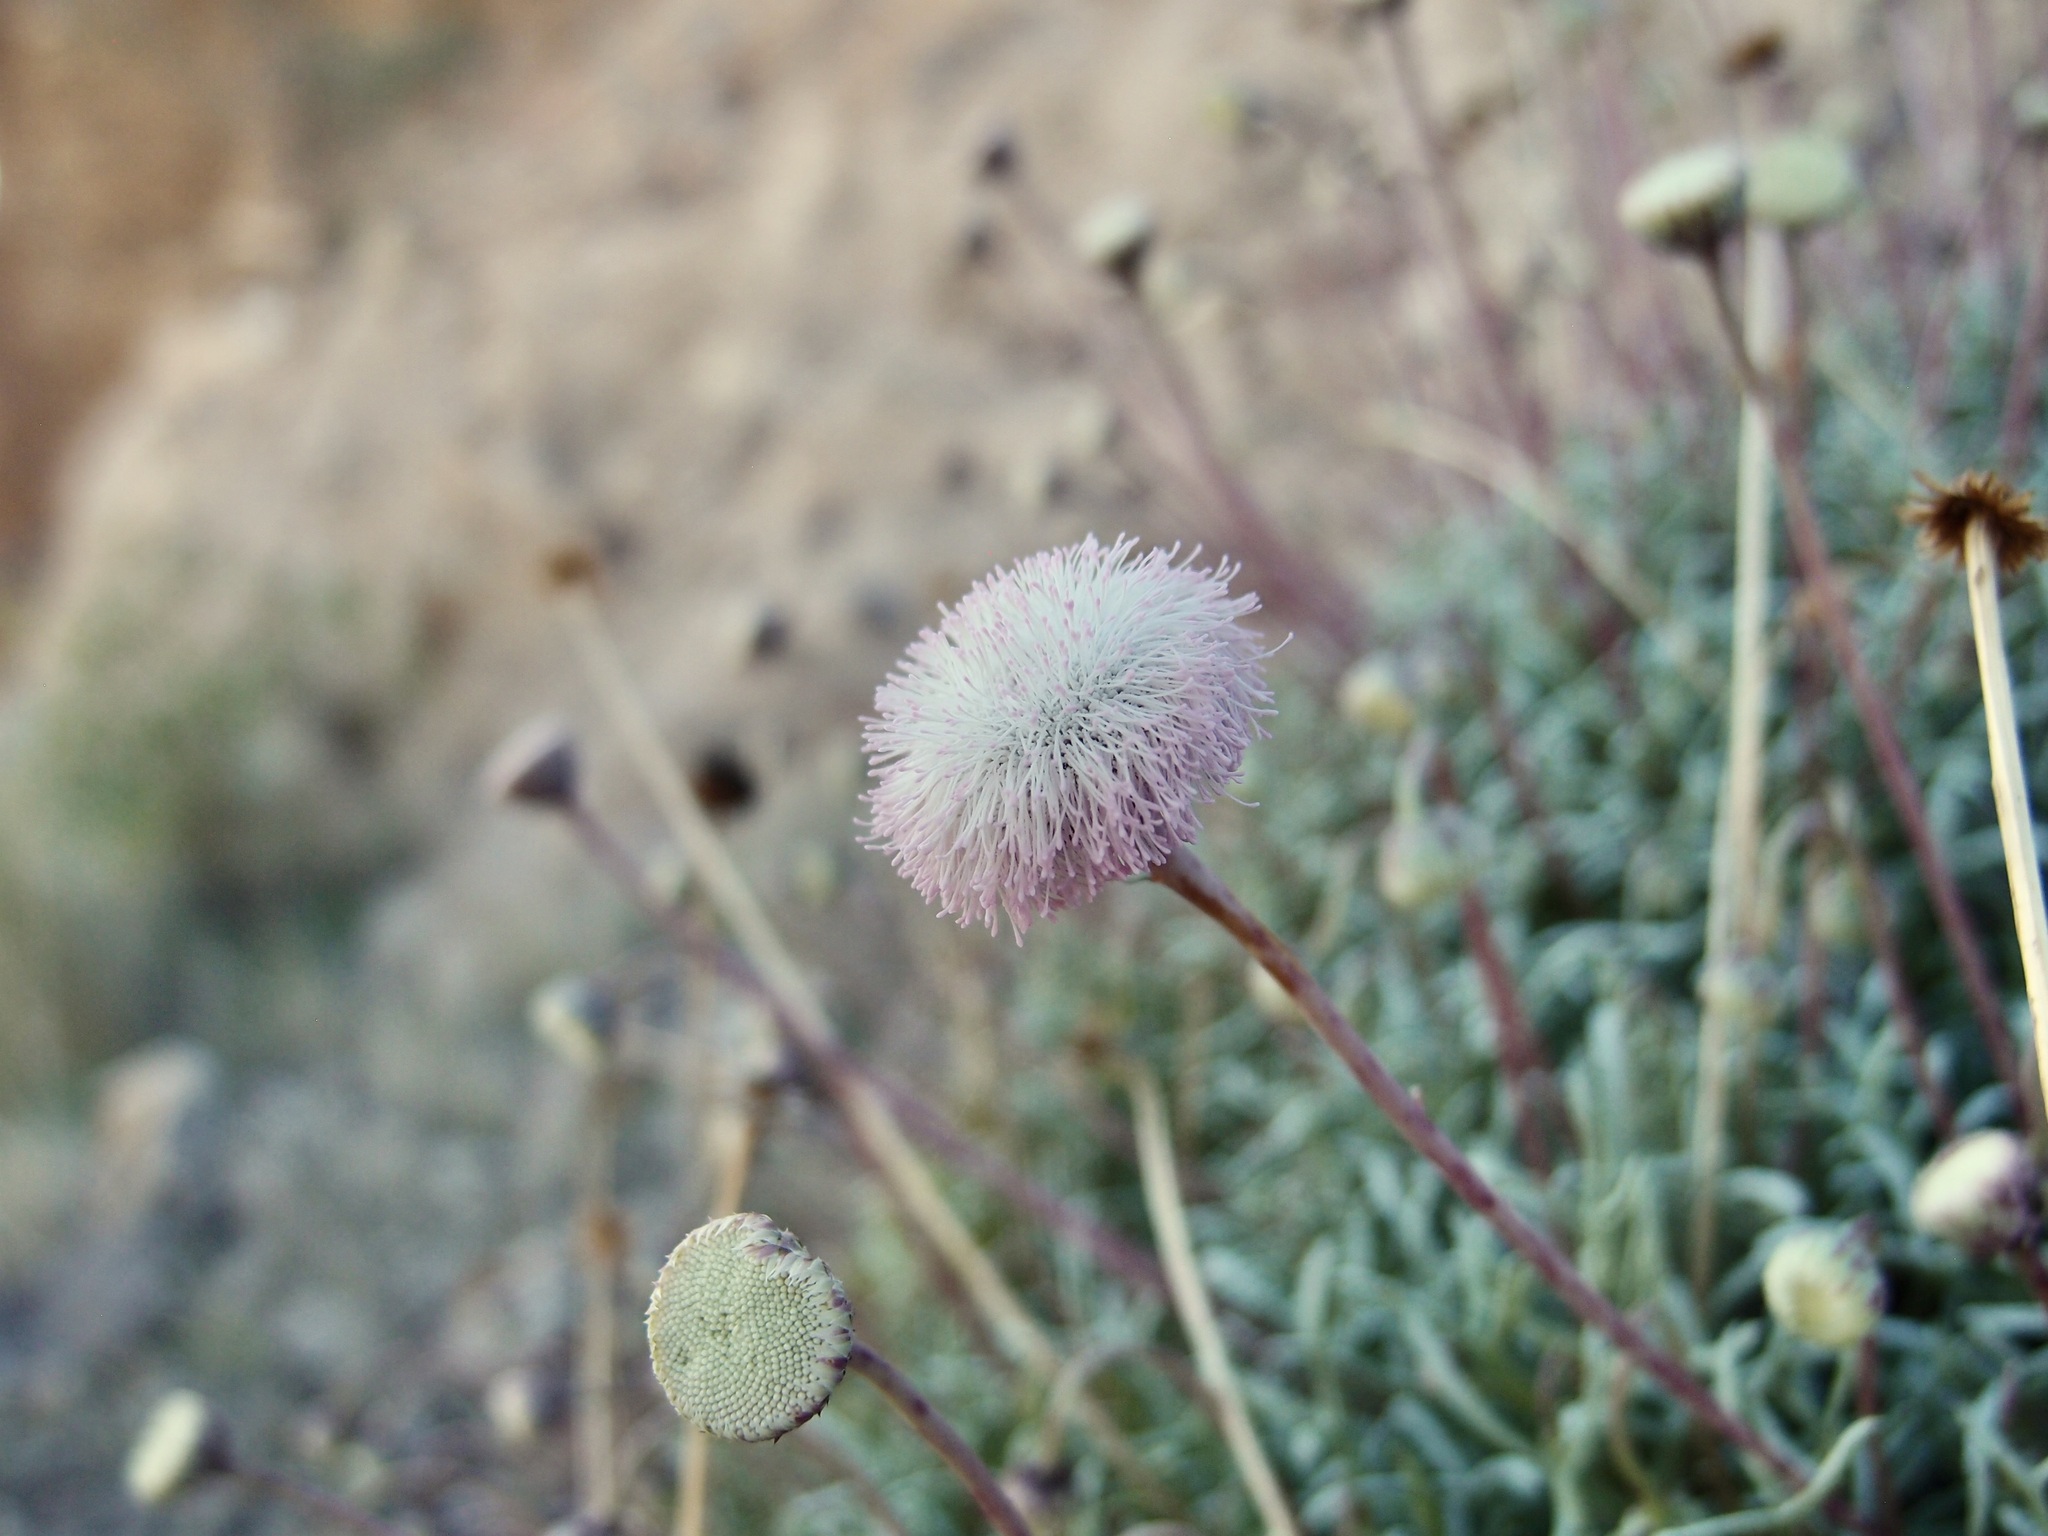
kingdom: Plantae
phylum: Tracheophyta
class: Magnoliopsida
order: Asterales
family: Asteraceae
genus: Hofmeisteria
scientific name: Hofmeisteria crassifolia
